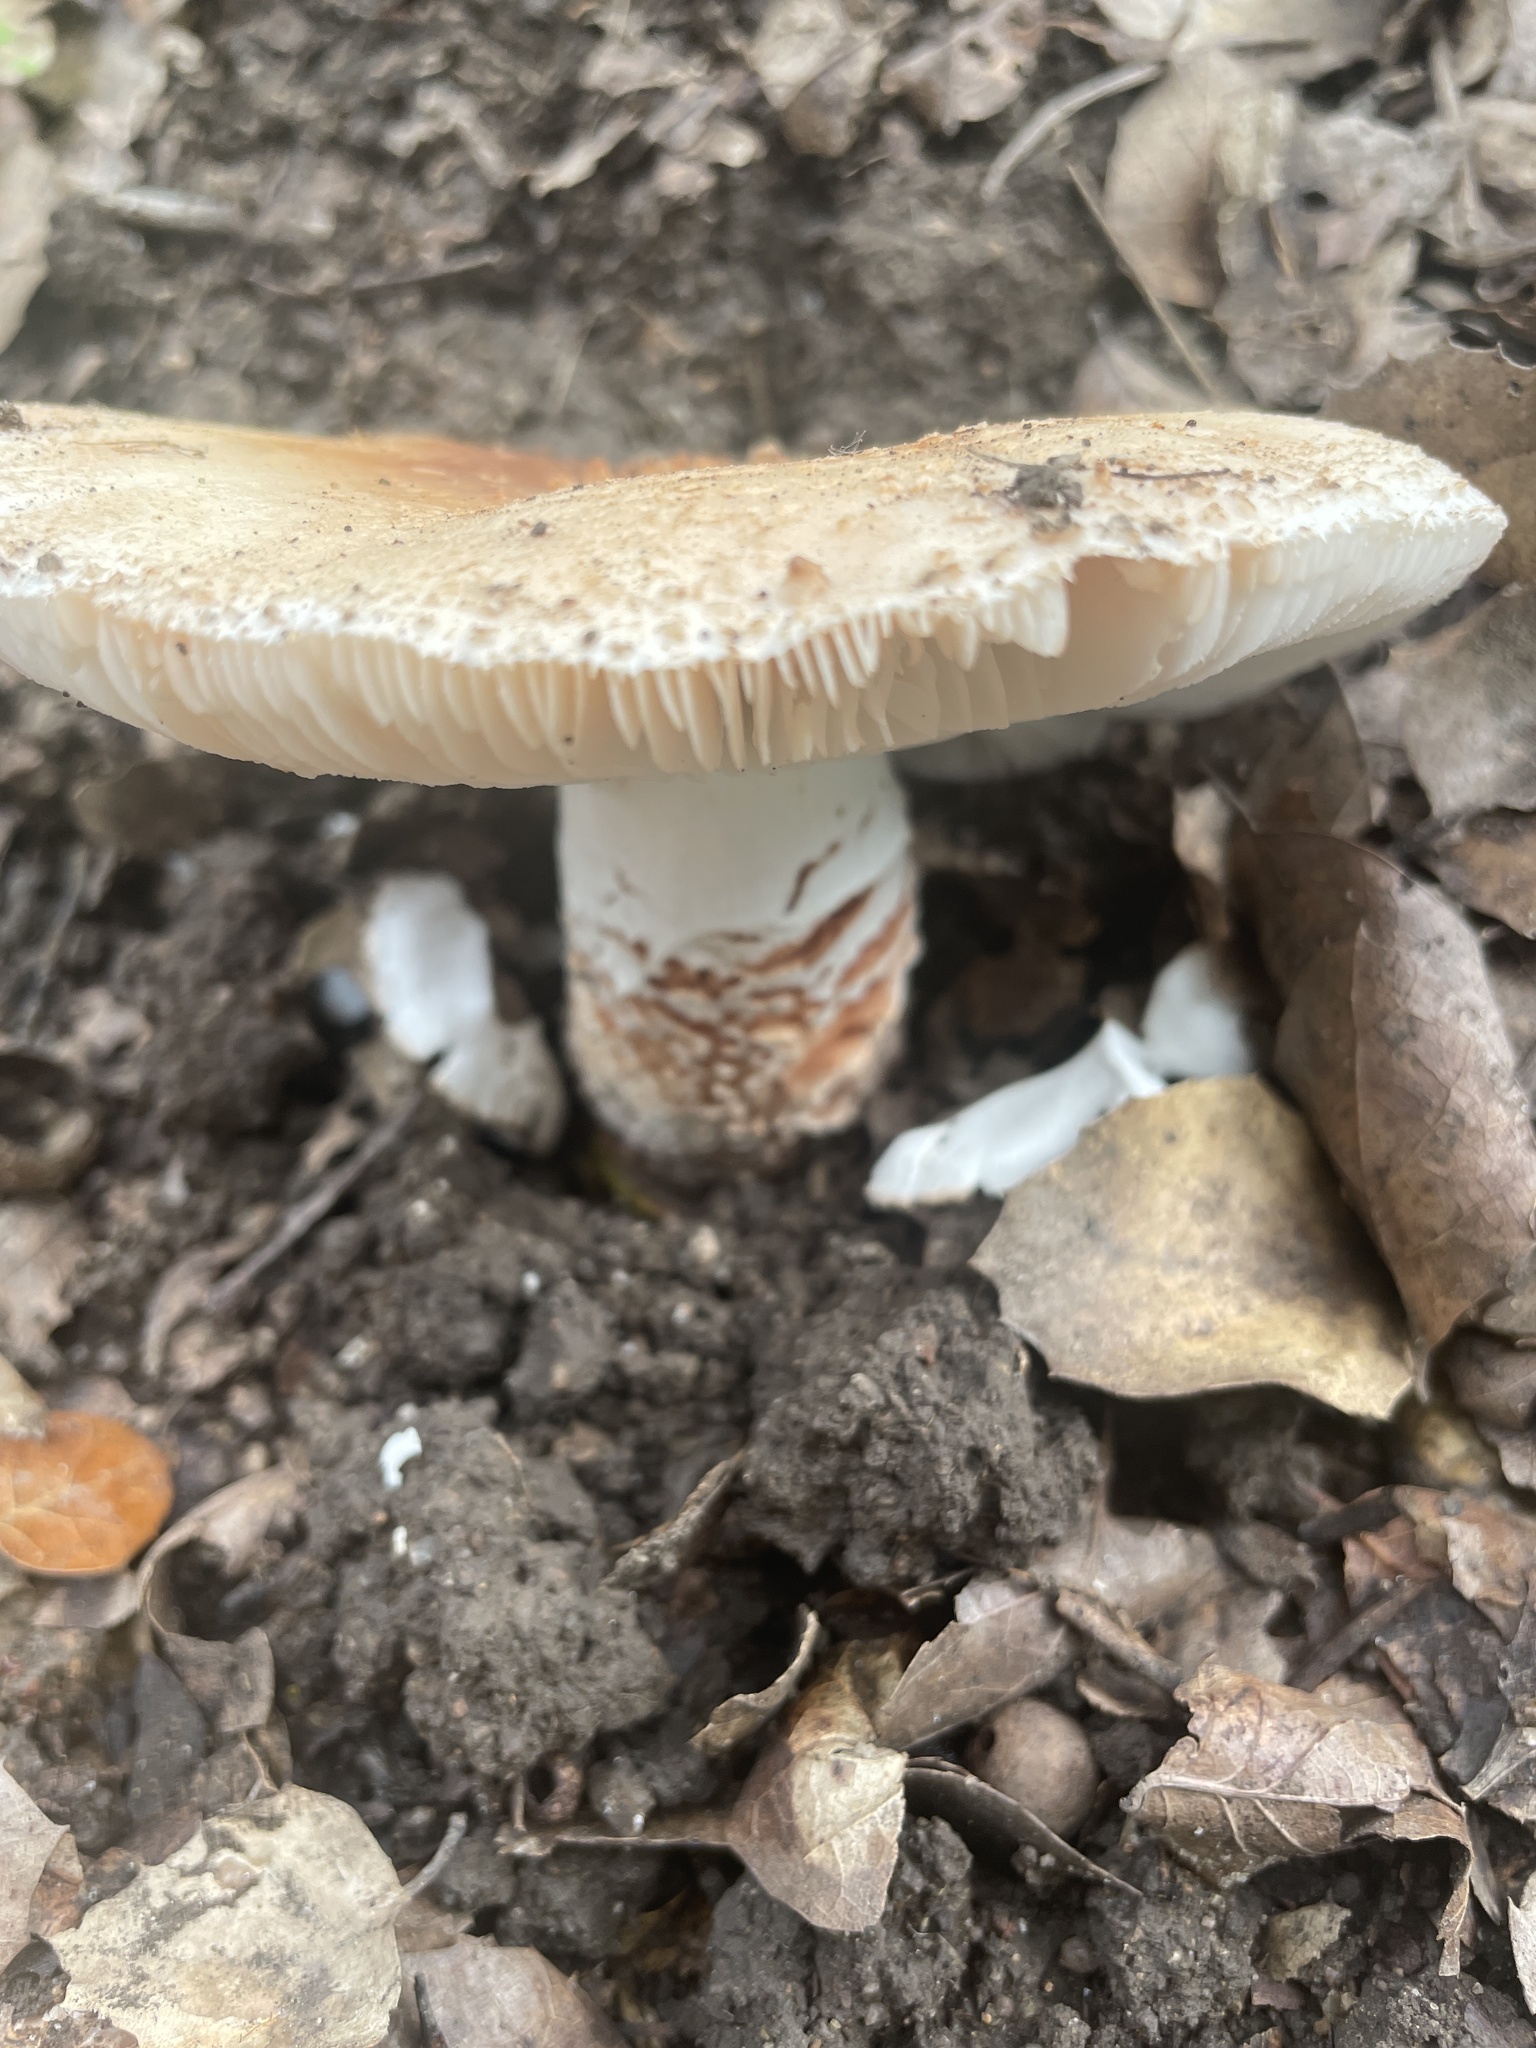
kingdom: Fungi
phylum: Basidiomycota
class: Agaricomycetes
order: Agaricales
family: Amanitaceae
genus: Amanita
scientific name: Amanita novinupta
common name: Blushing bride
